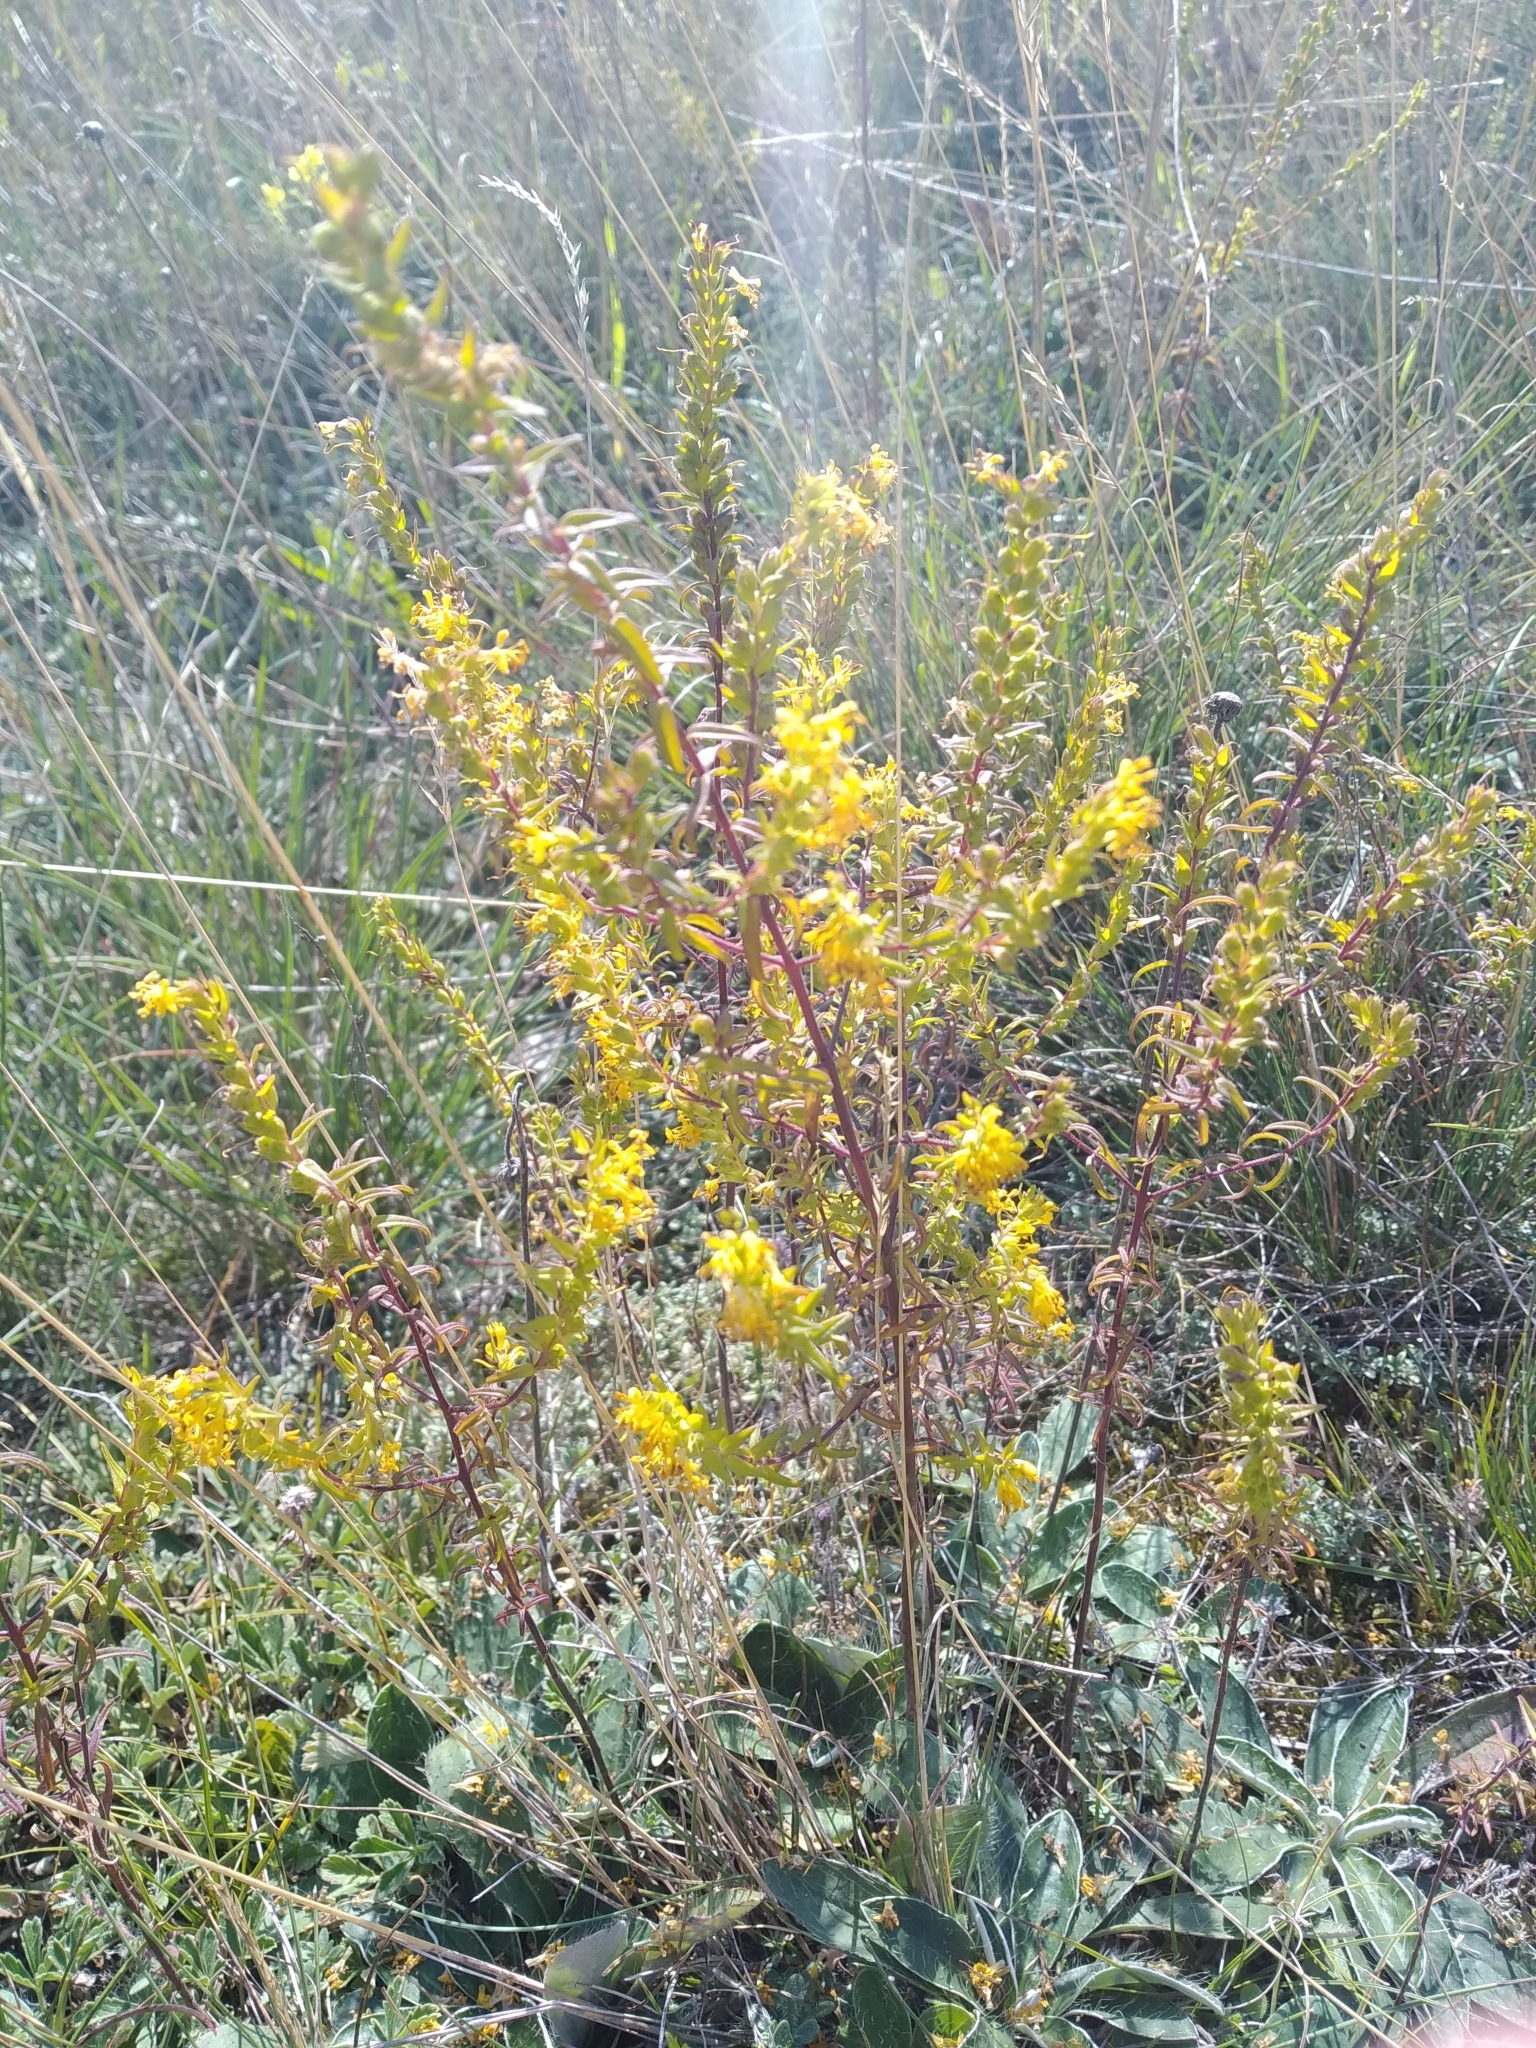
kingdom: Plantae
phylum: Tracheophyta
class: Magnoliopsida
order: Lamiales
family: Orobanchaceae
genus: Odontites
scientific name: Odontites luteus
